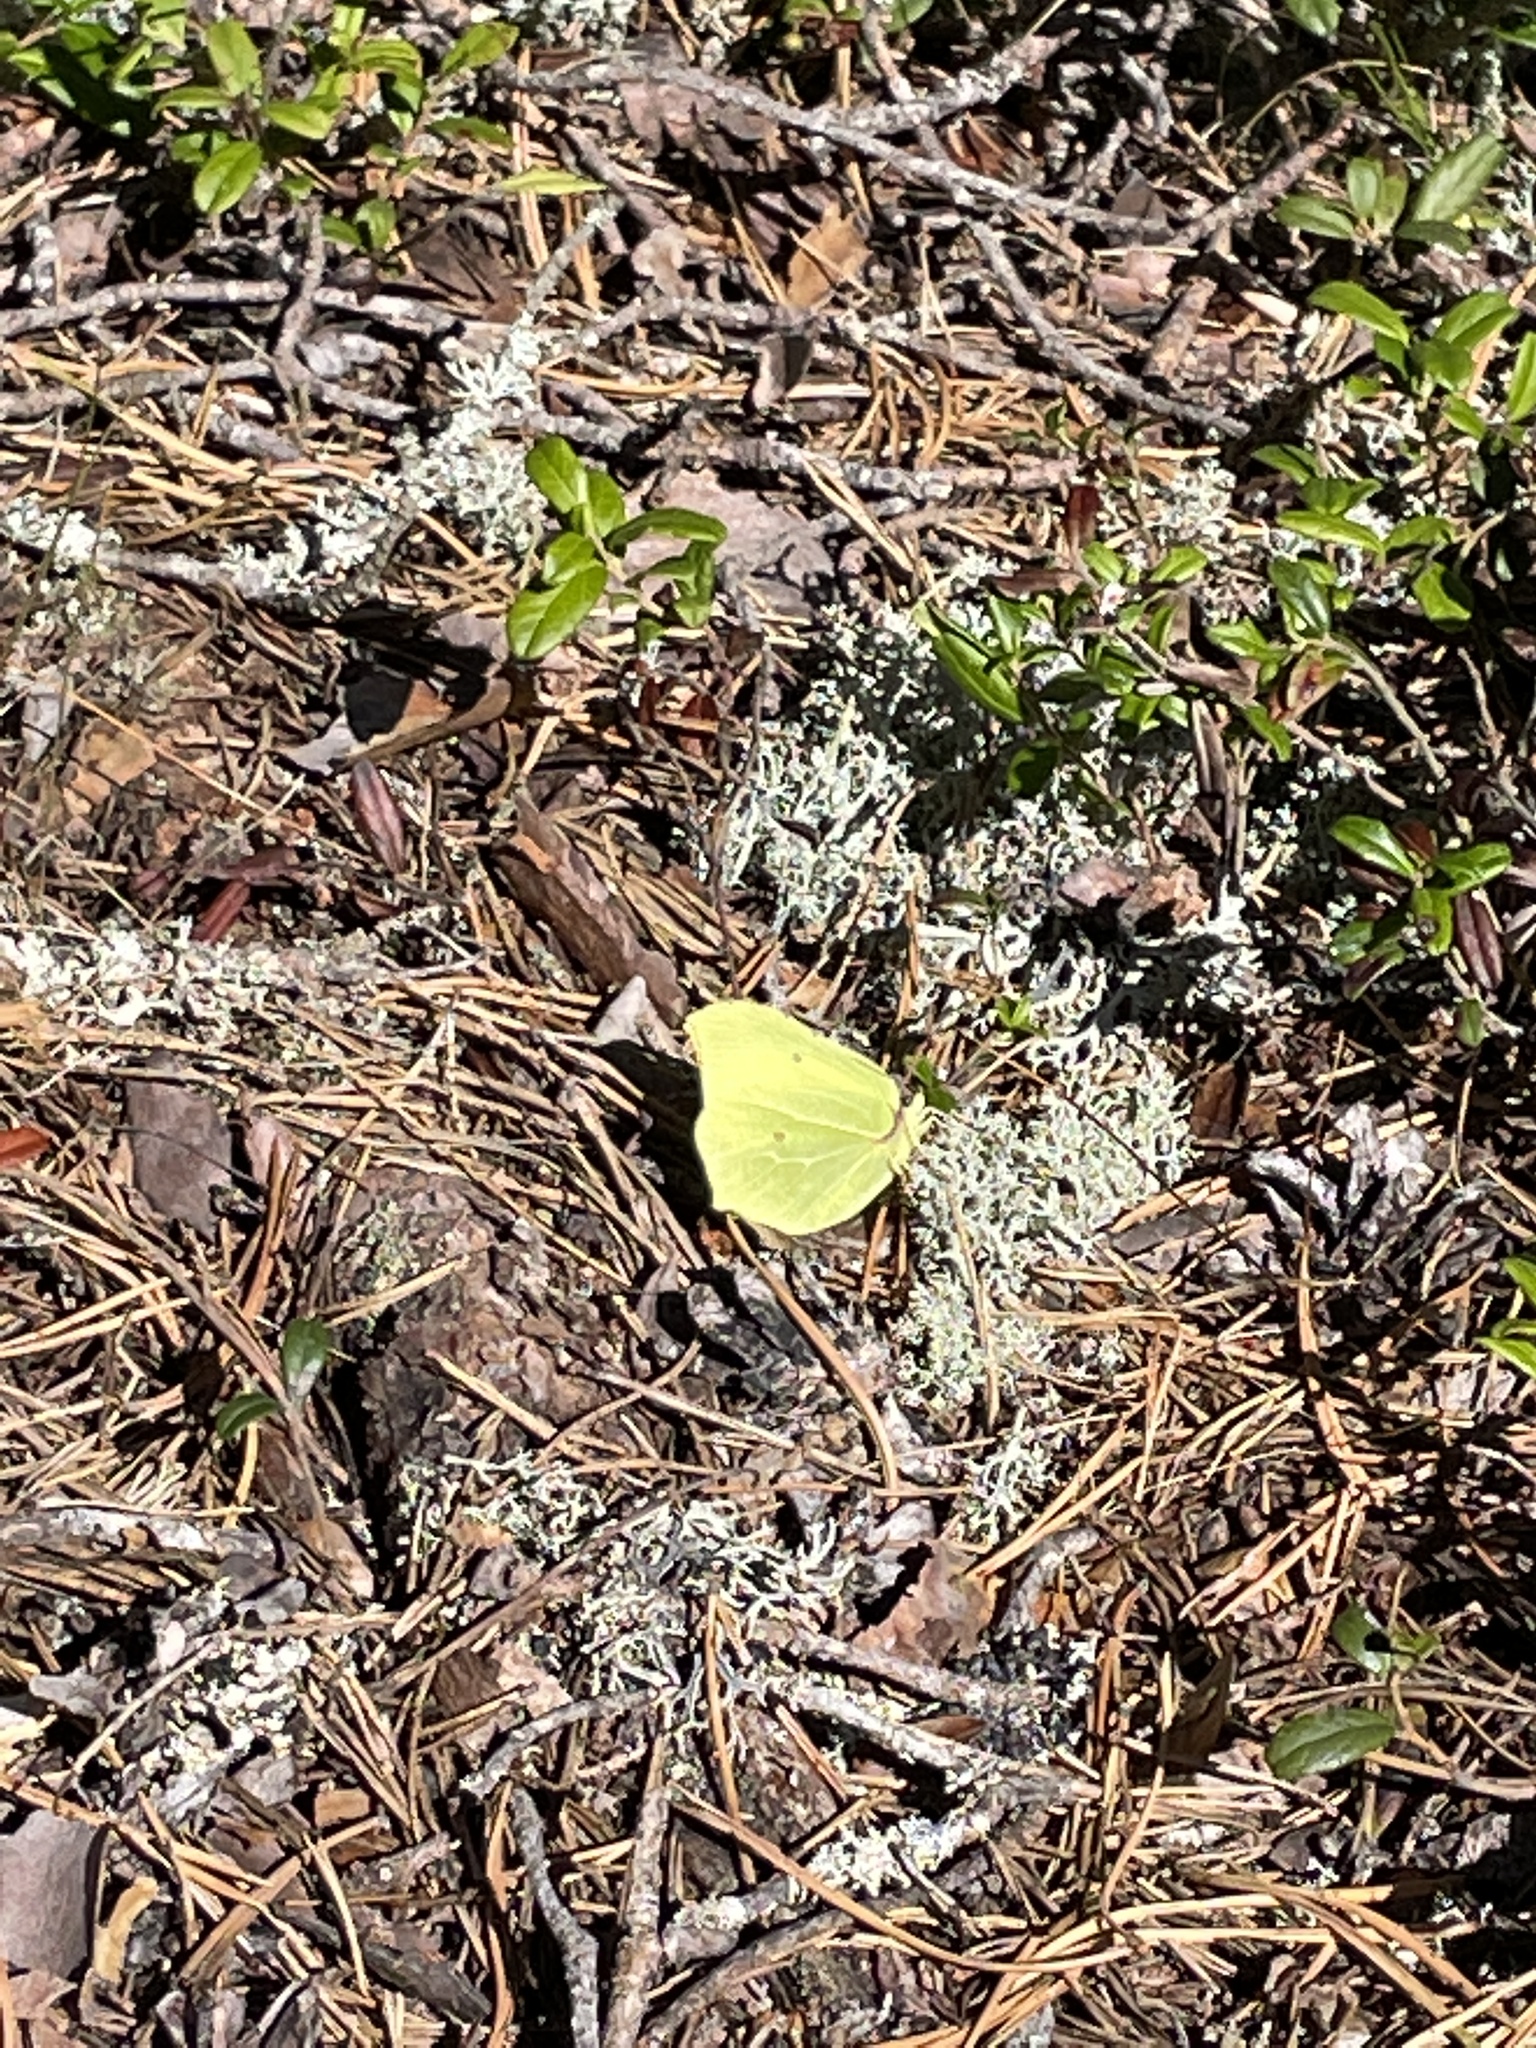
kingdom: Animalia
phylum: Arthropoda
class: Insecta
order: Lepidoptera
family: Pieridae
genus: Gonepteryx
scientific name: Gonepteryx rhamni
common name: Brimstone
